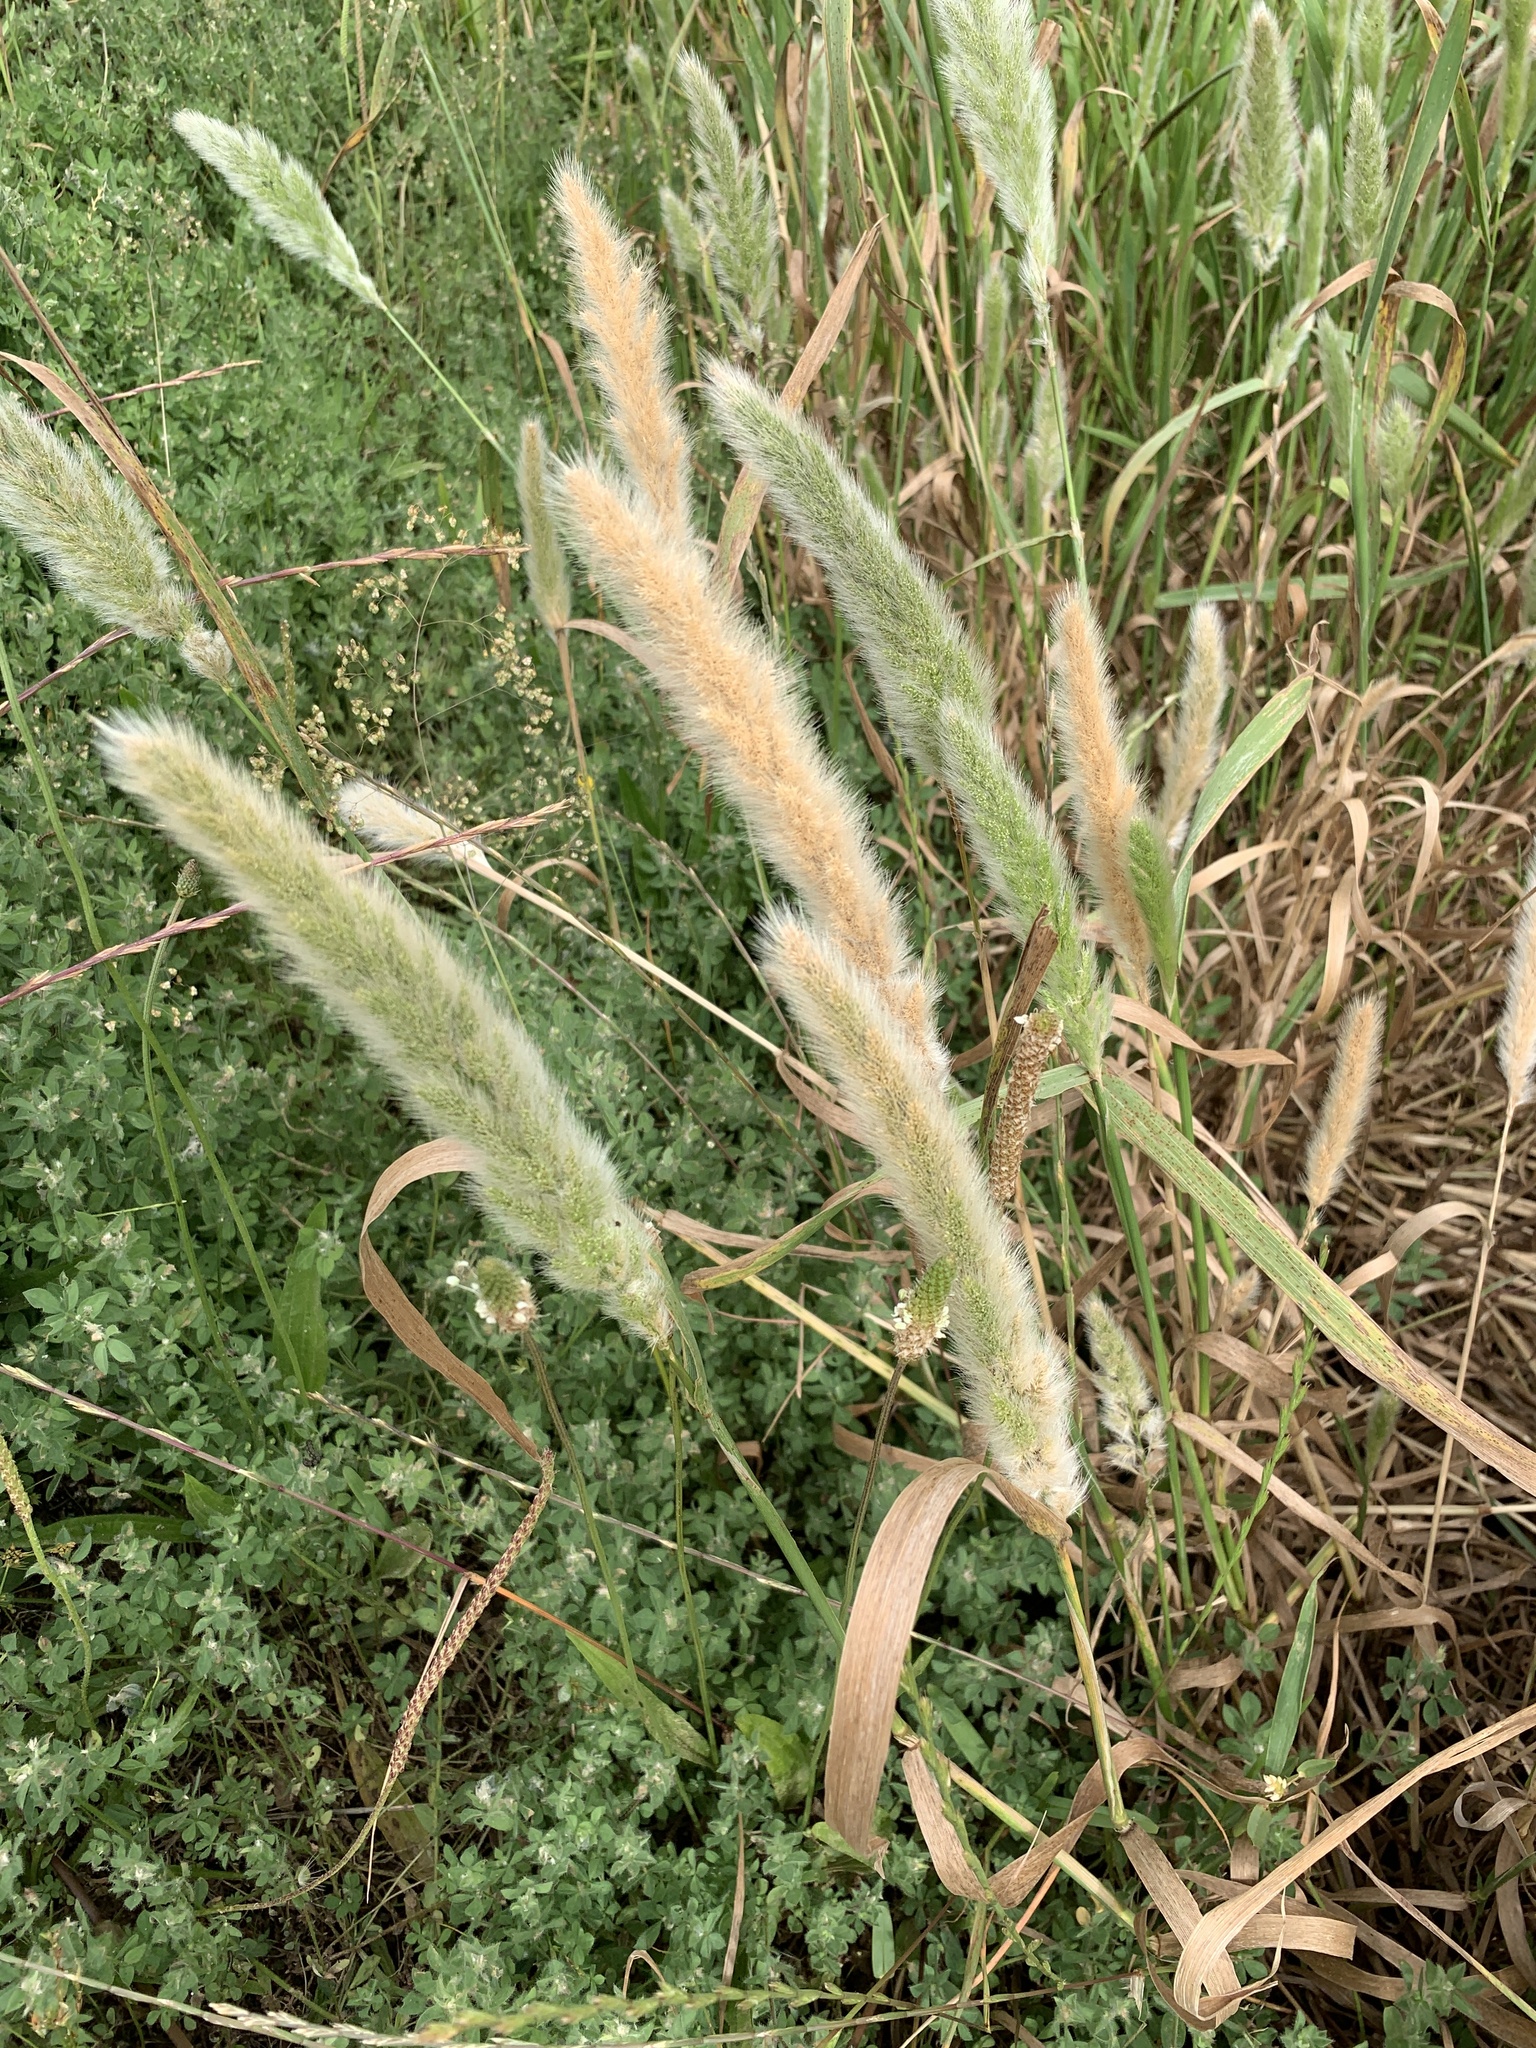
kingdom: Plantae
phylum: Tracheophyta
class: Liliopsida
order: Poales
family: Poaceae
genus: Polypogon
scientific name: Polypogon monspeliensis
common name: Annual rabbitsfoot grass
